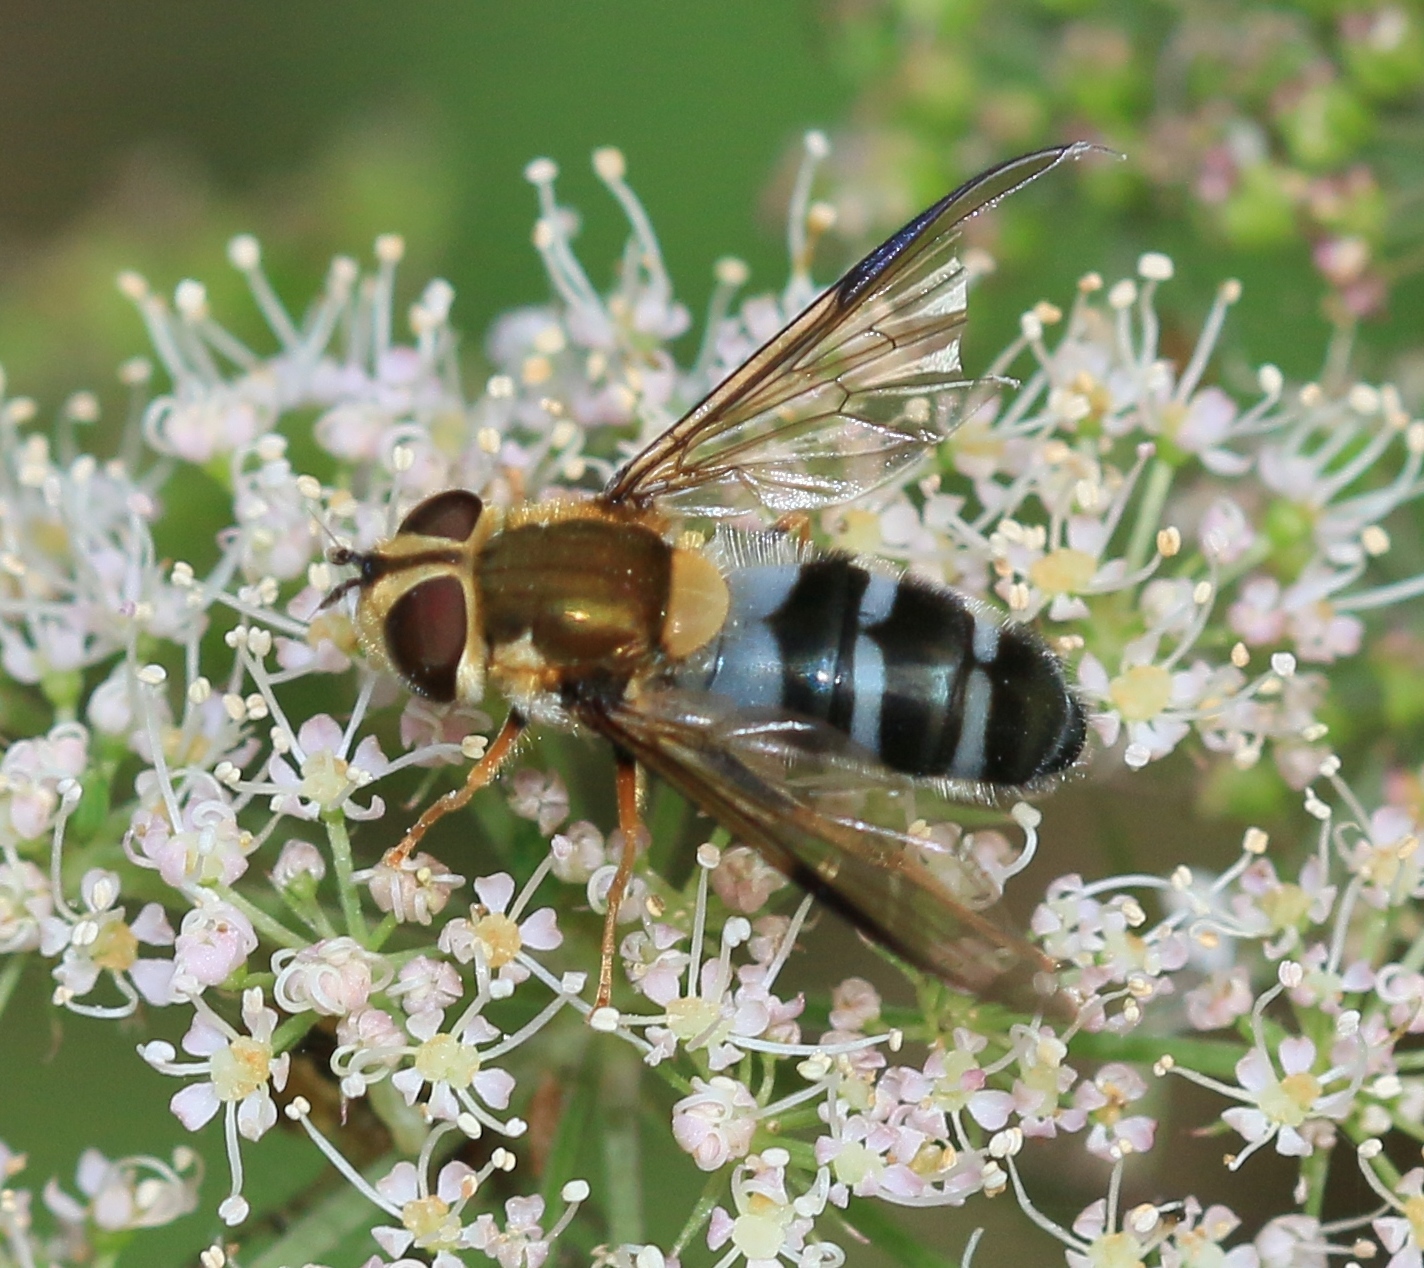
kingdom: Animalia
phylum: Arthropoda
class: Insecta
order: Diptera
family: Syrphidae
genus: Leucozona
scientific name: Leucozona glaucia
